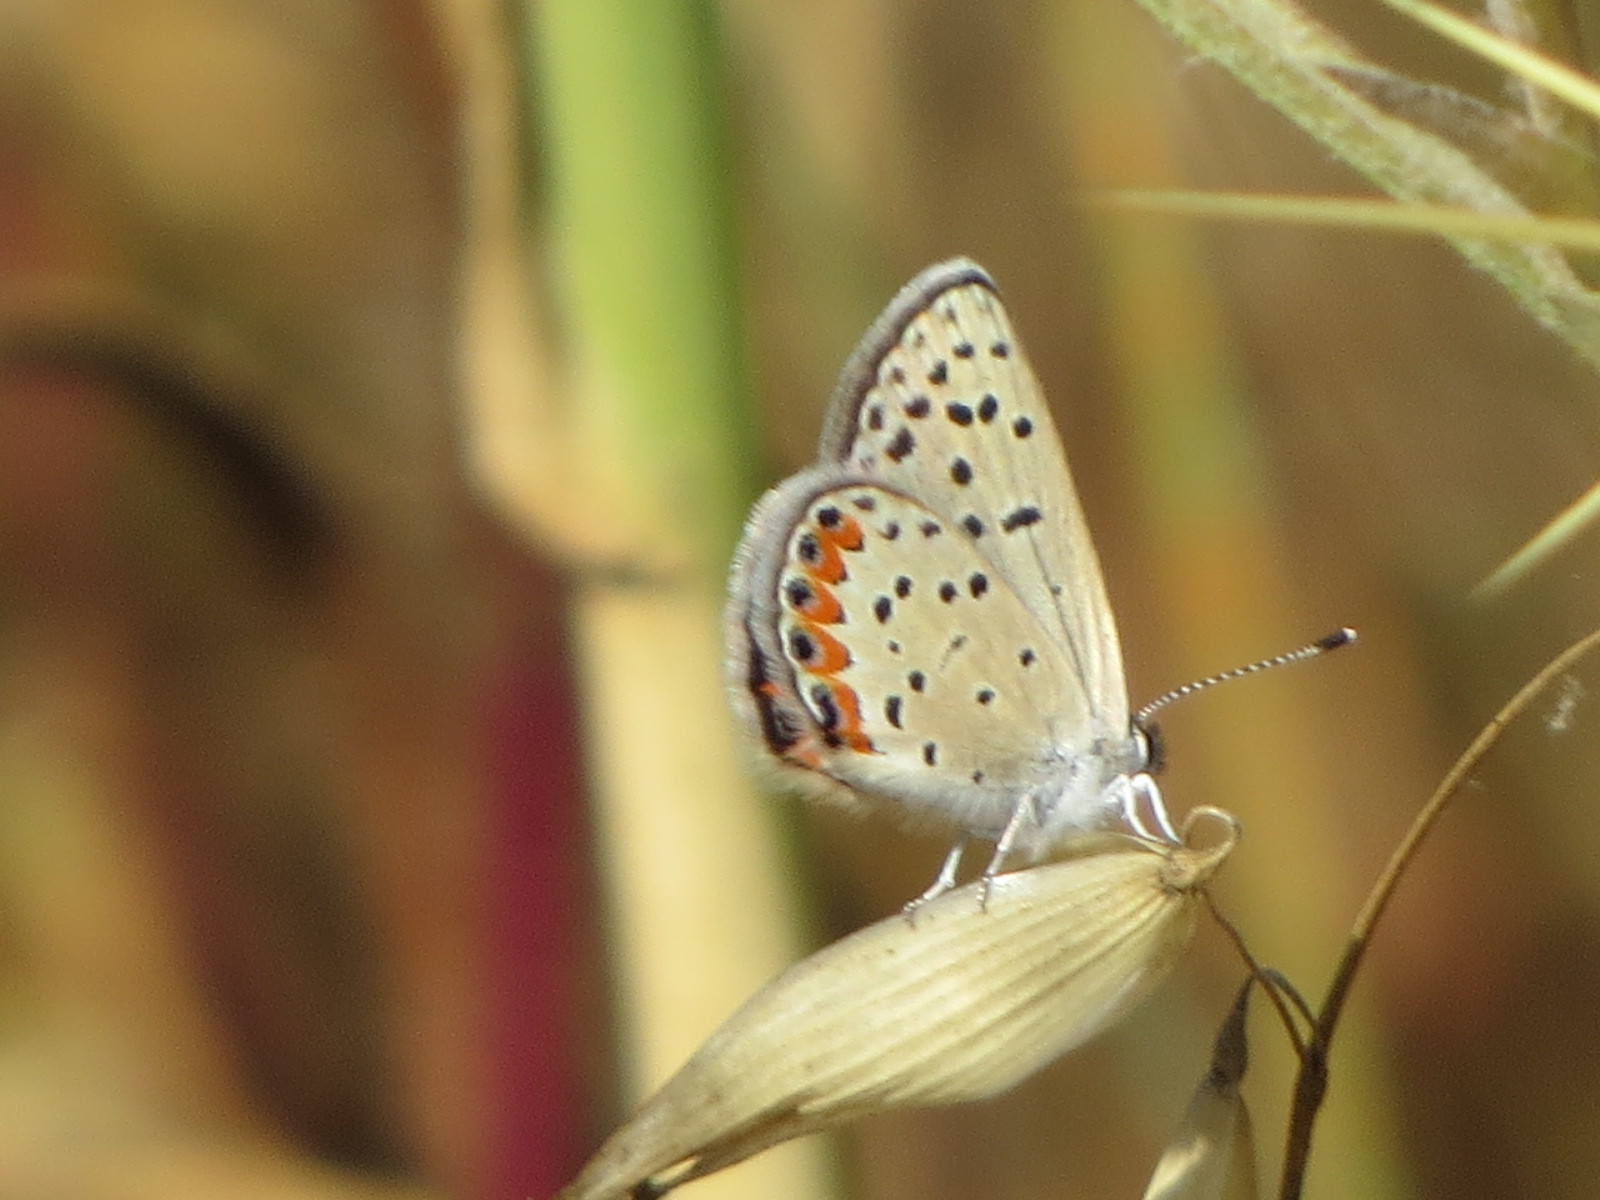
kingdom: Animalia
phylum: Arthropoda
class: Insecta
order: Lepidoptera
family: Lycaenidae
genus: Icaricia
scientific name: Icaricia acmon
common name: Acmon blue
